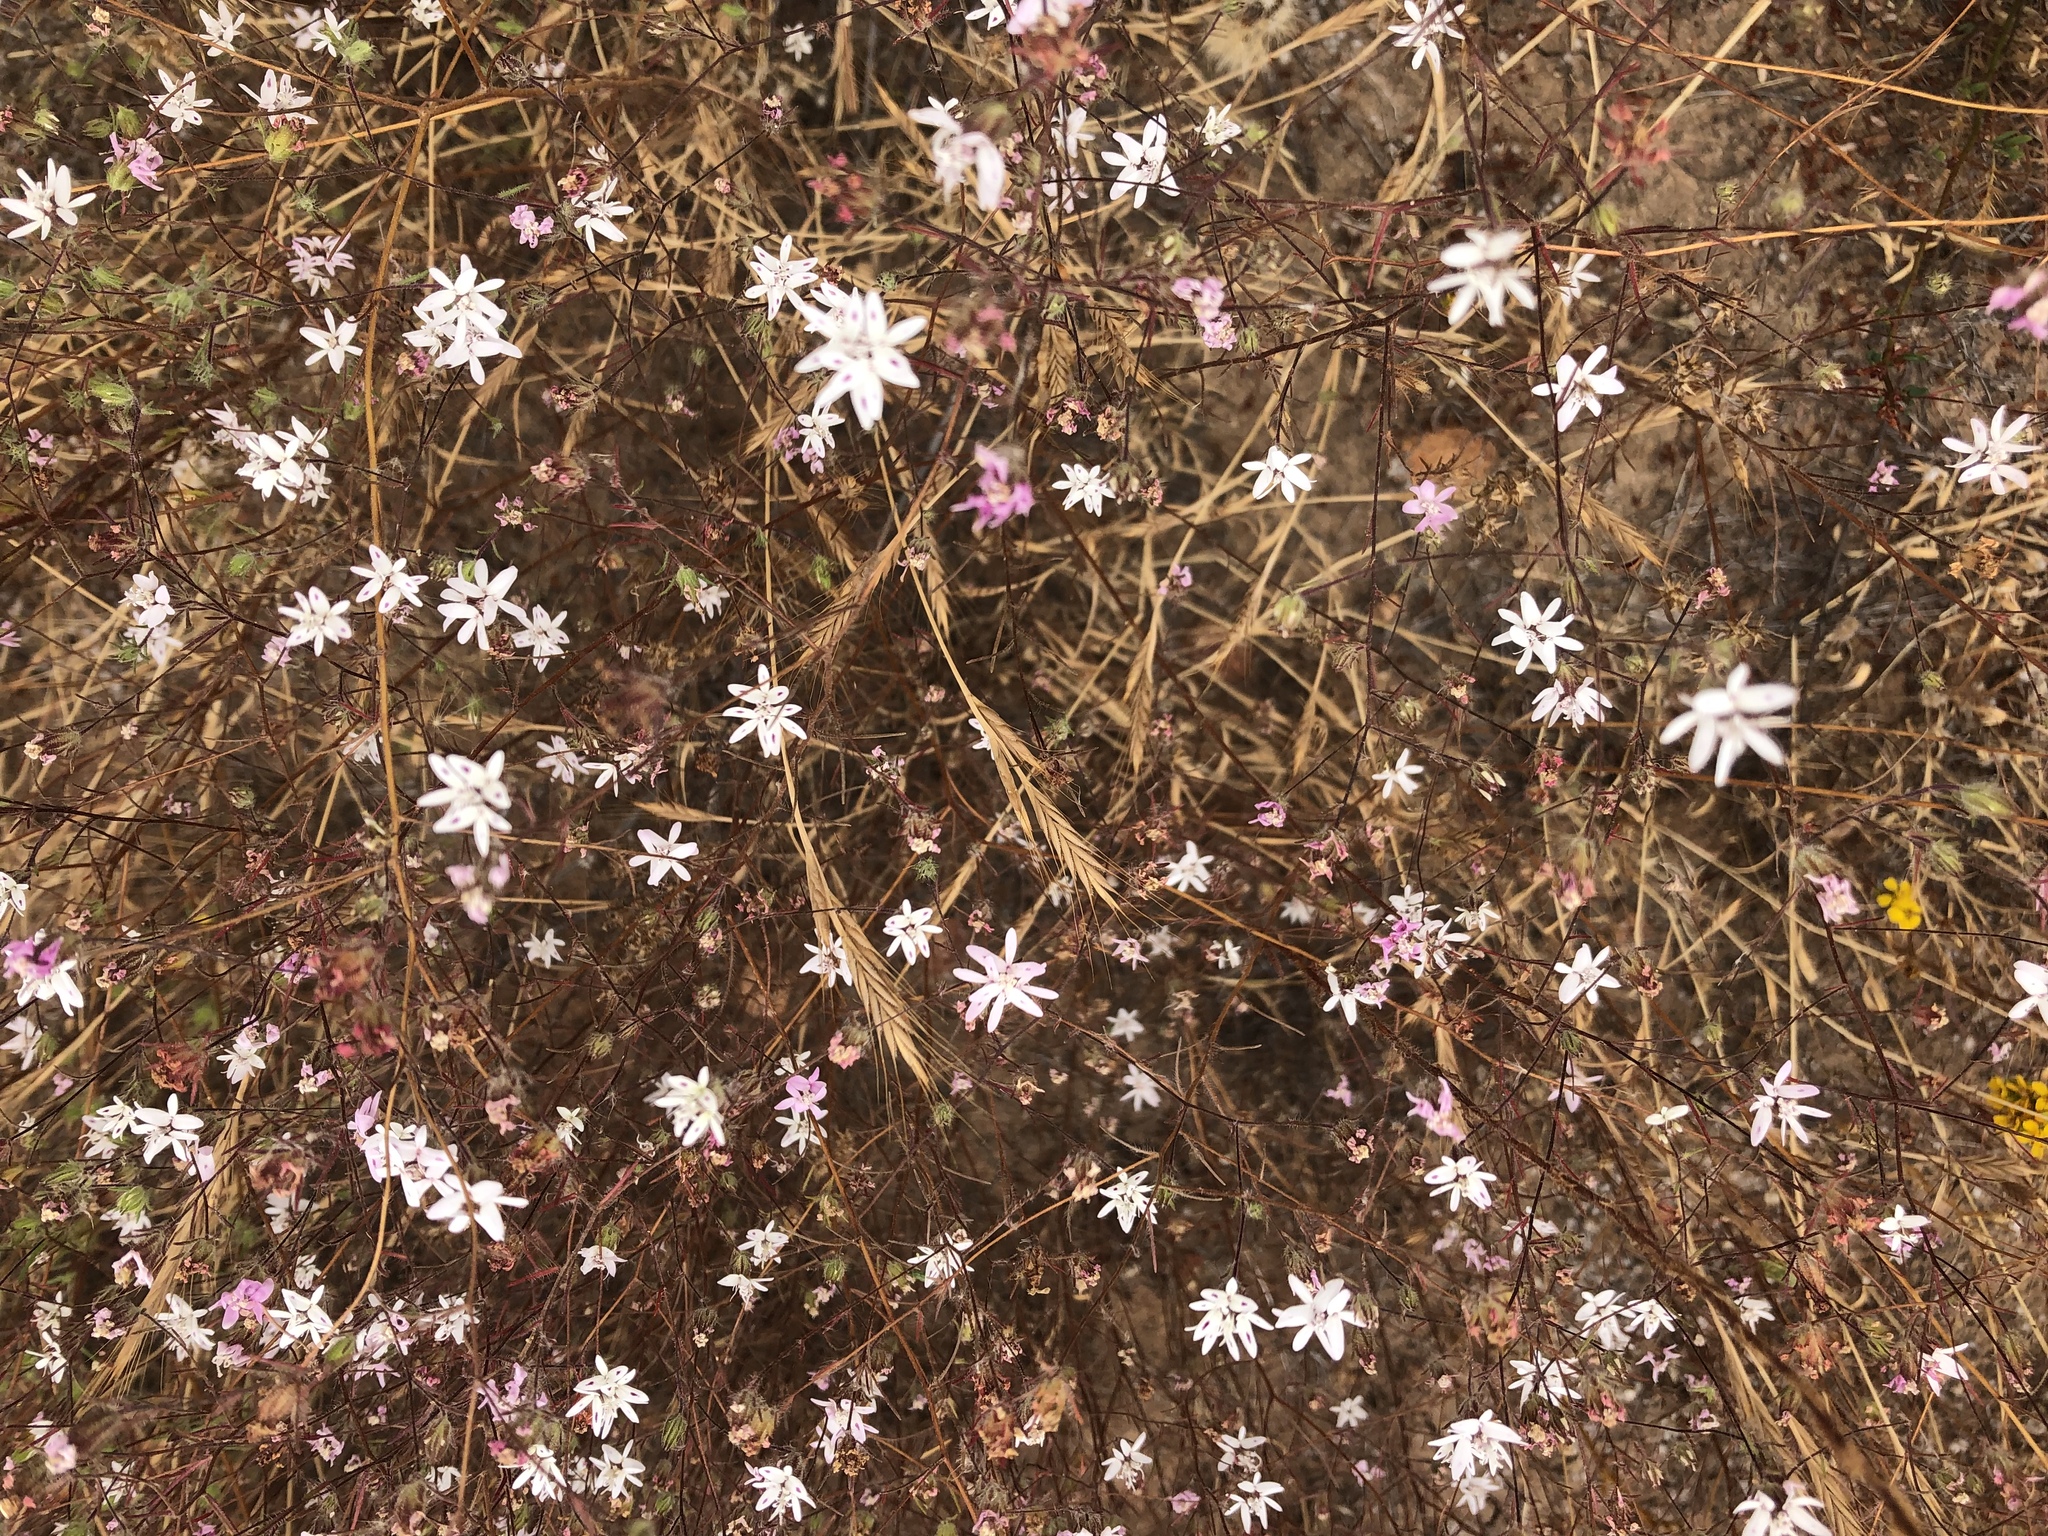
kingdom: Plantae
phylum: Tracheophyta
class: Magnoliopsida
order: Asterales
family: Asteraceae
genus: Osmadenia
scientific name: Osmadenia tenella
